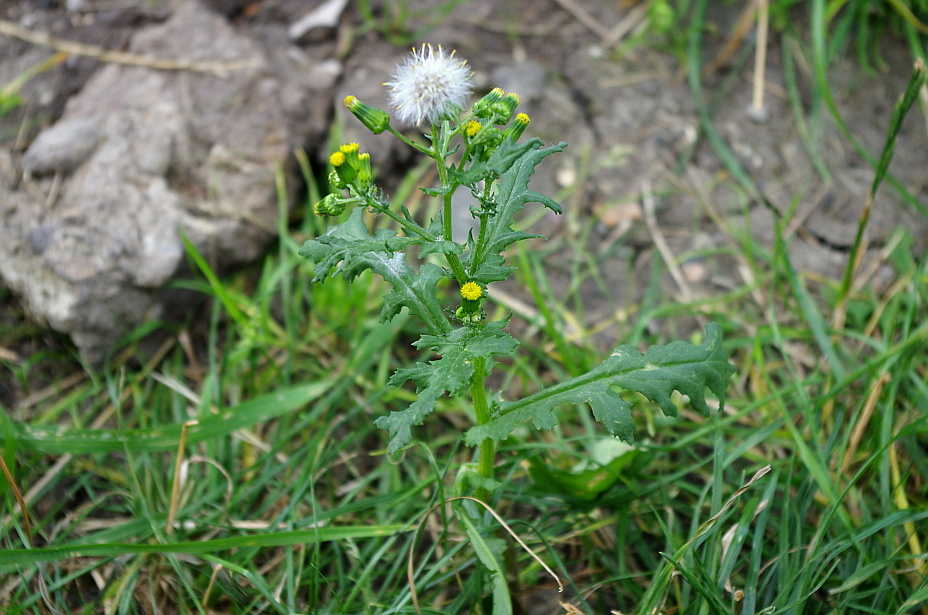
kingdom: Plantae
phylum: Tracheophyta
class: Magnoliopsida
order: Asterales
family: Asteraceae
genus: Senecio
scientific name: Senecio vulgaris
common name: Old-man-in-the-spring
